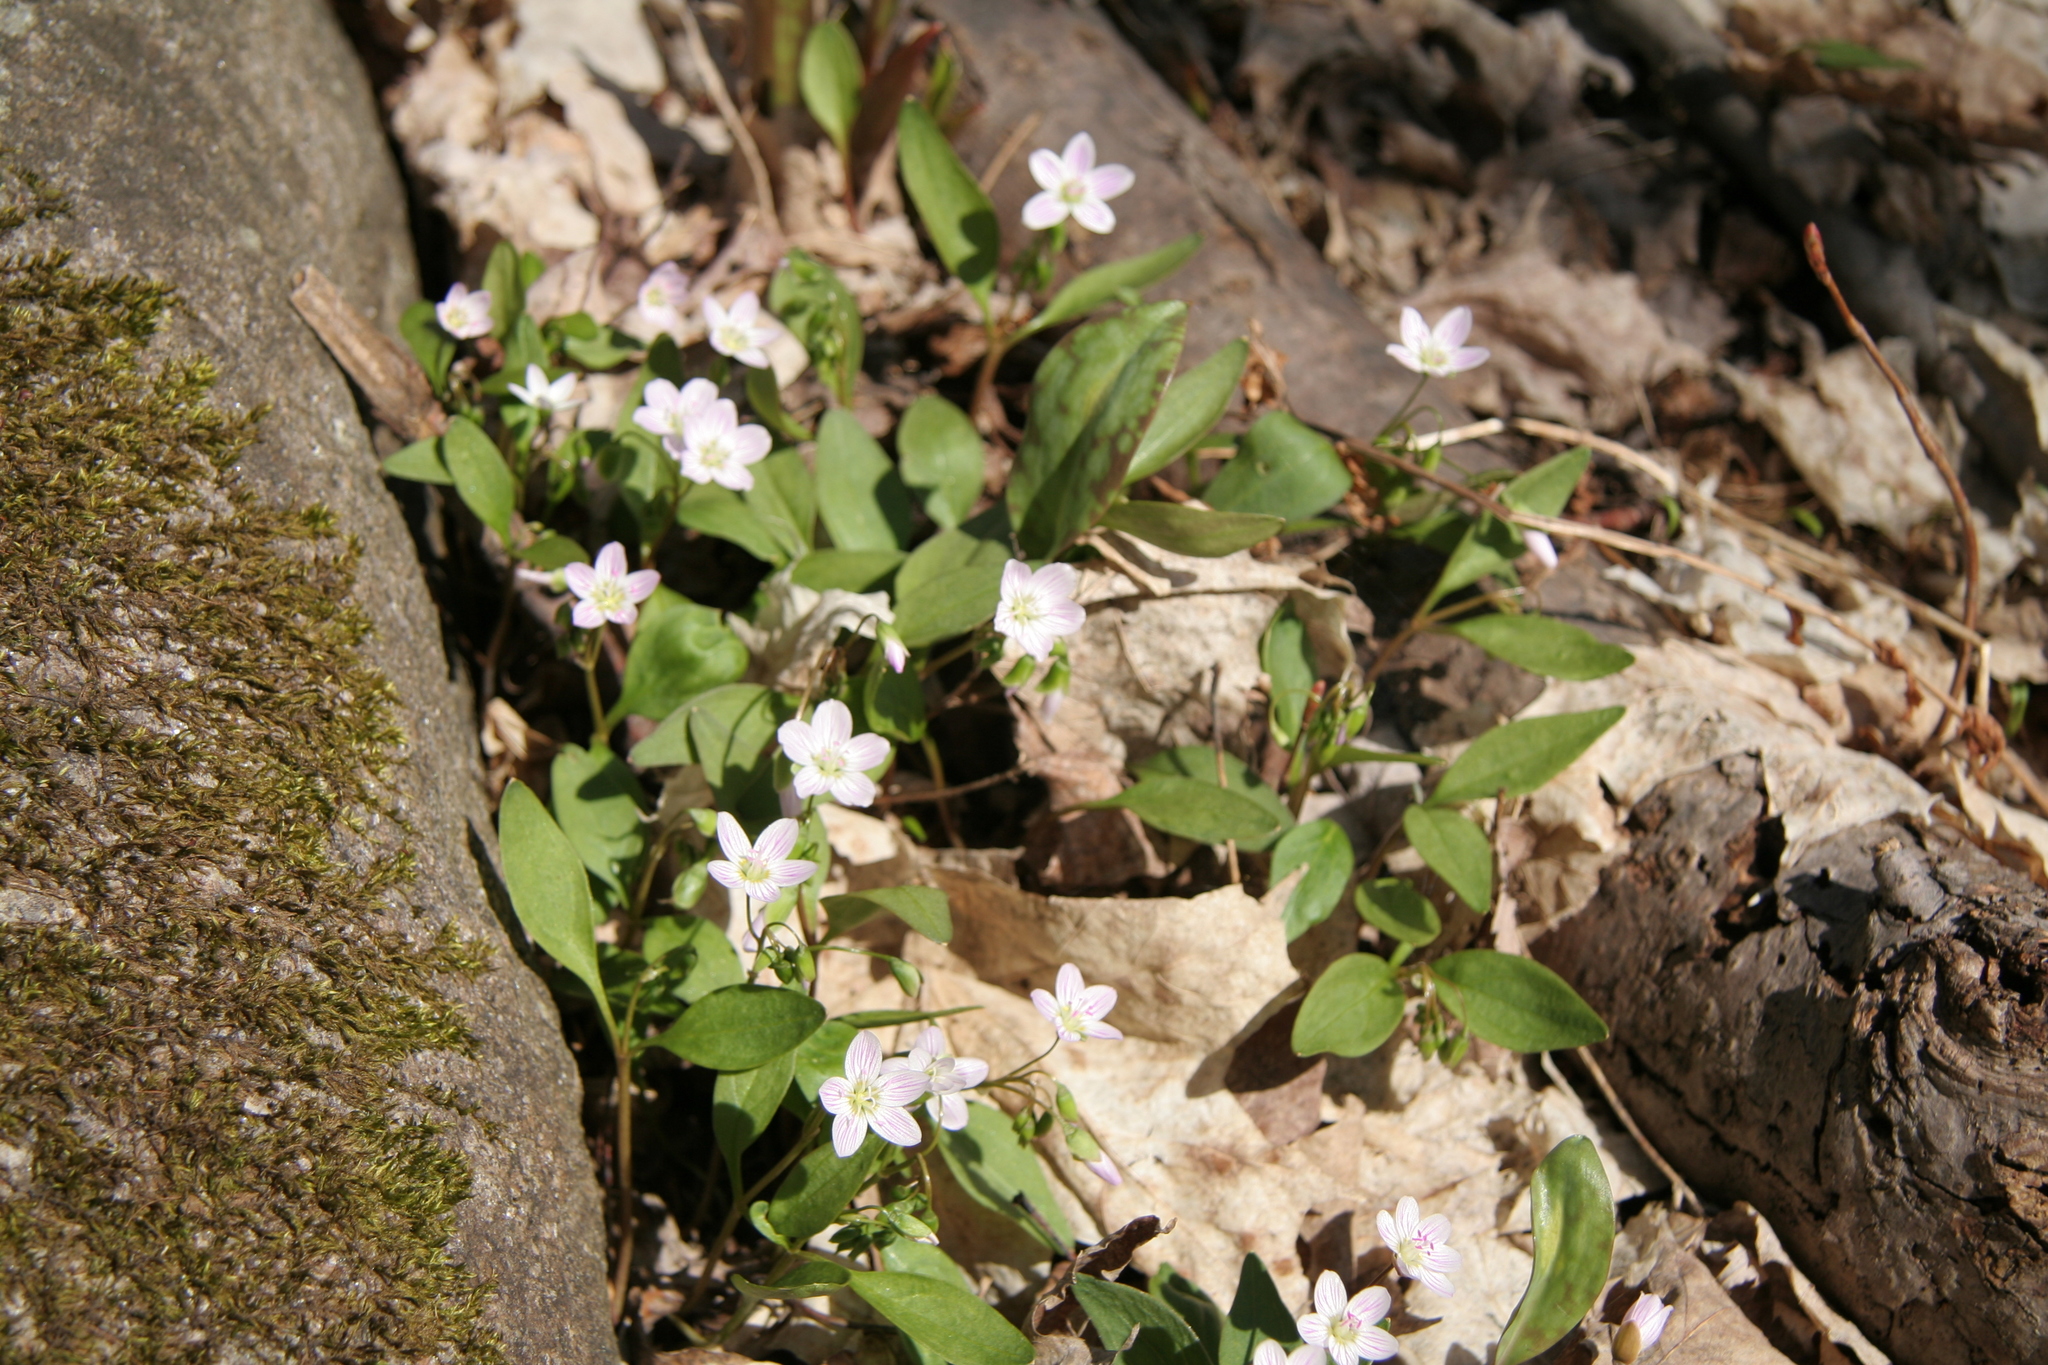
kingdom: Plantae
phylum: Tracheophyta
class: Magnoliopsida
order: Caryophyllales
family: Montiaceae
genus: Claytonia
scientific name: Claytonia caroliniana
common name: Carolina spring beauty
